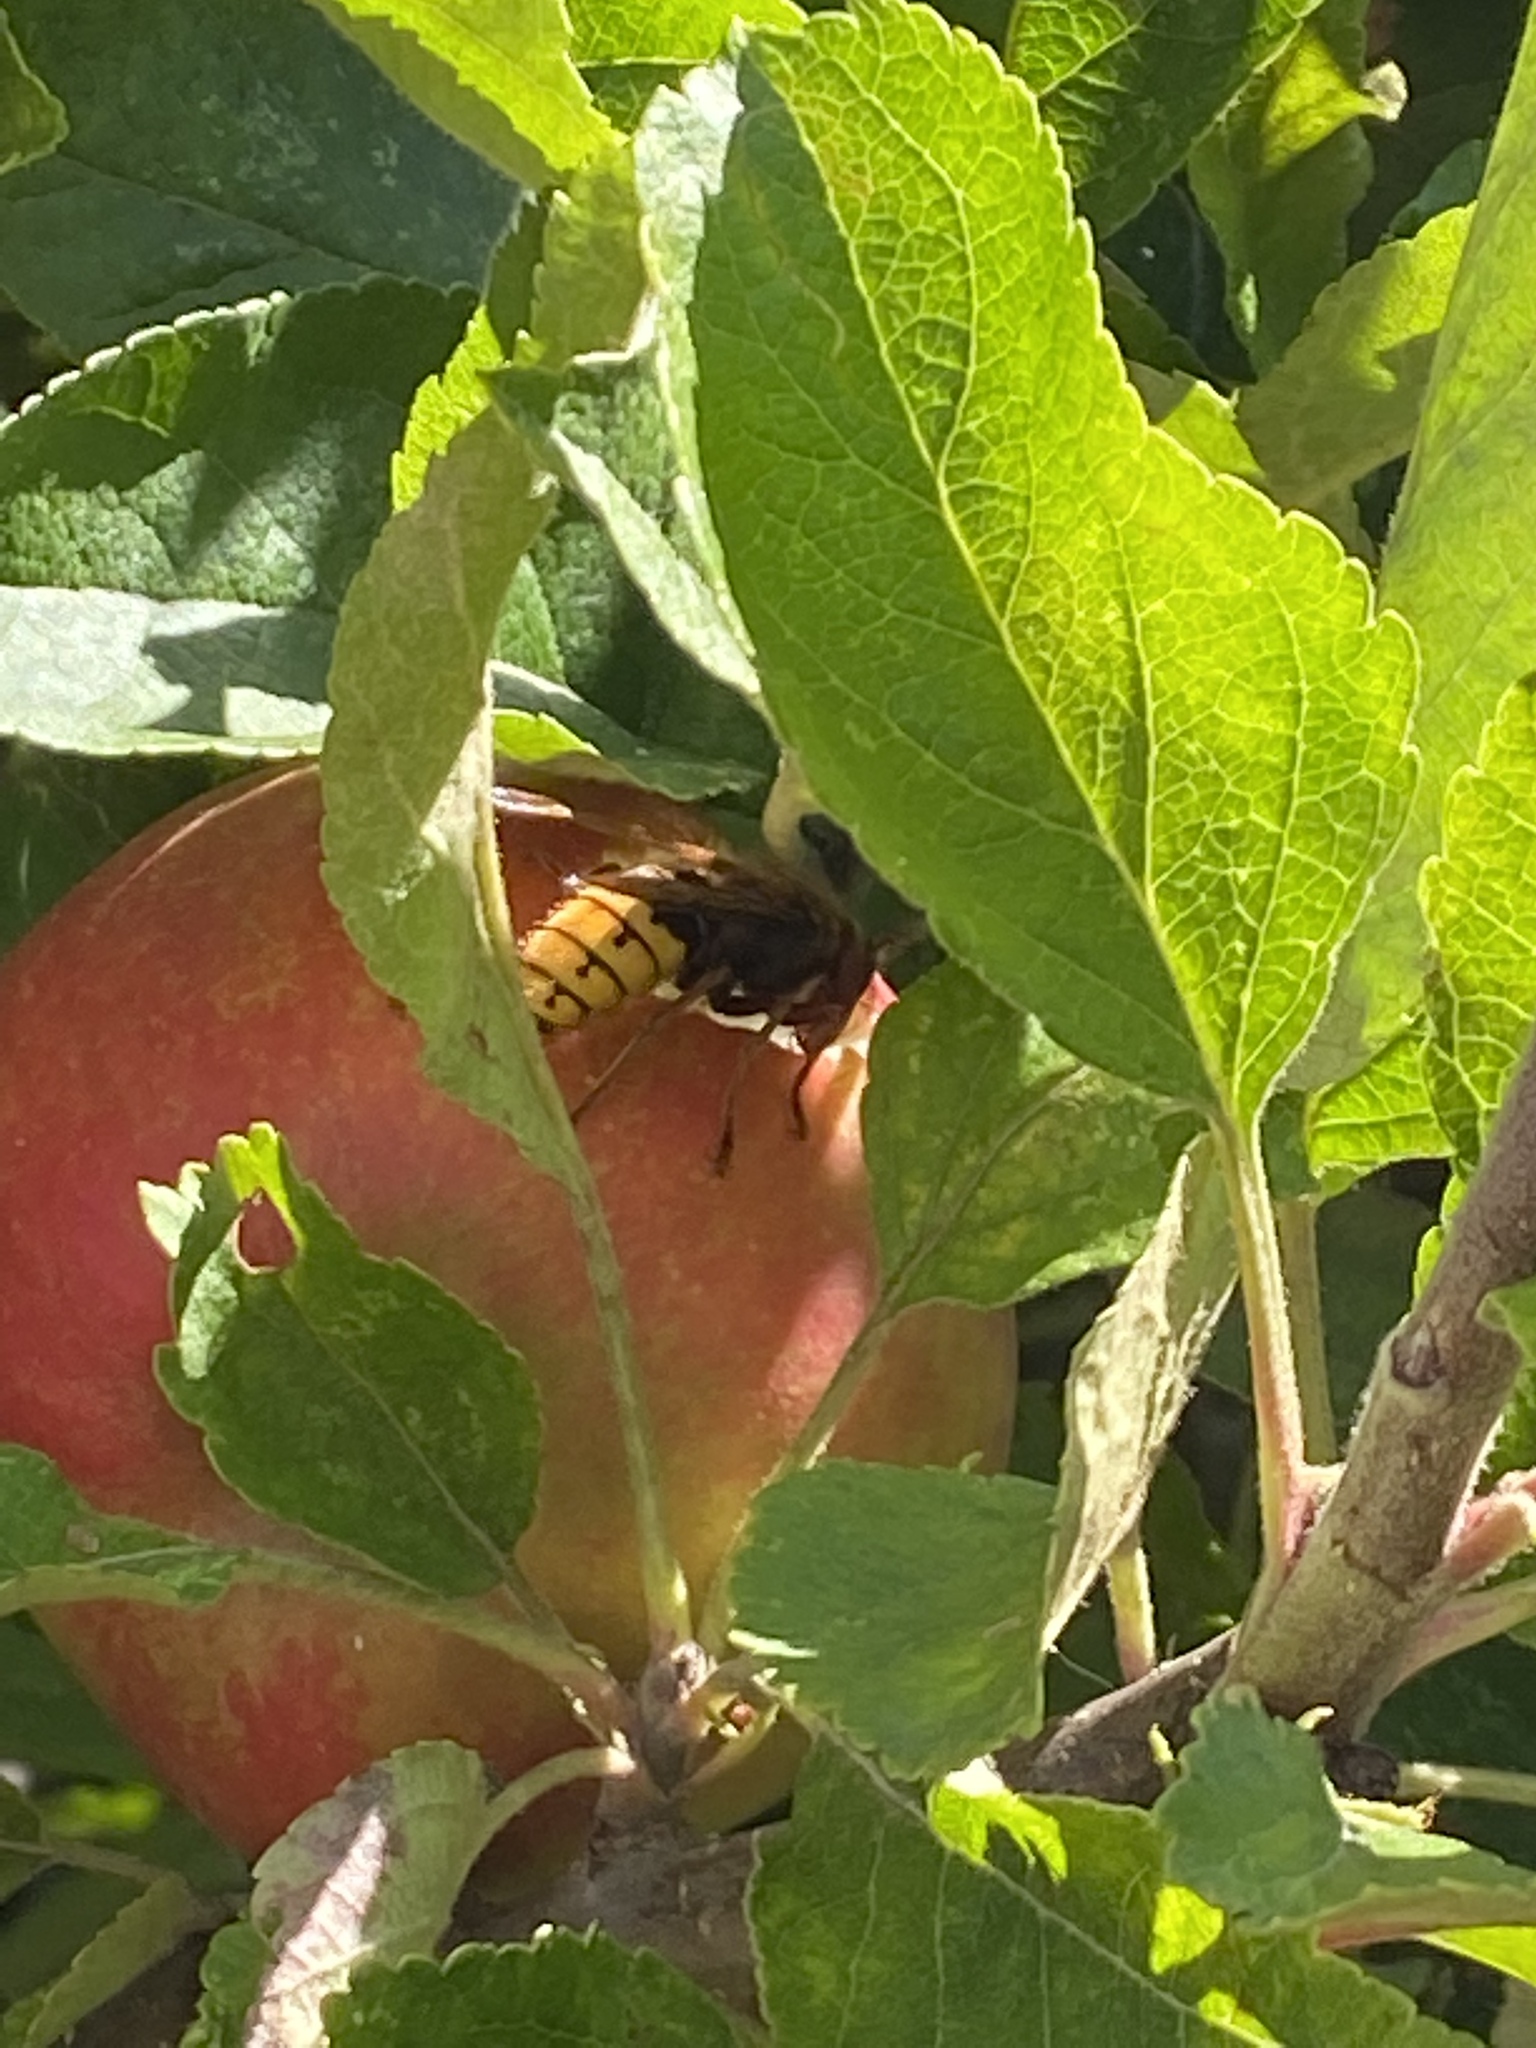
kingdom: Animalia
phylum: Arthropoda
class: Insecta
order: Hymenoptera
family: Vespidae
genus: Vespa
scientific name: Vespa crabro
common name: Hornet
